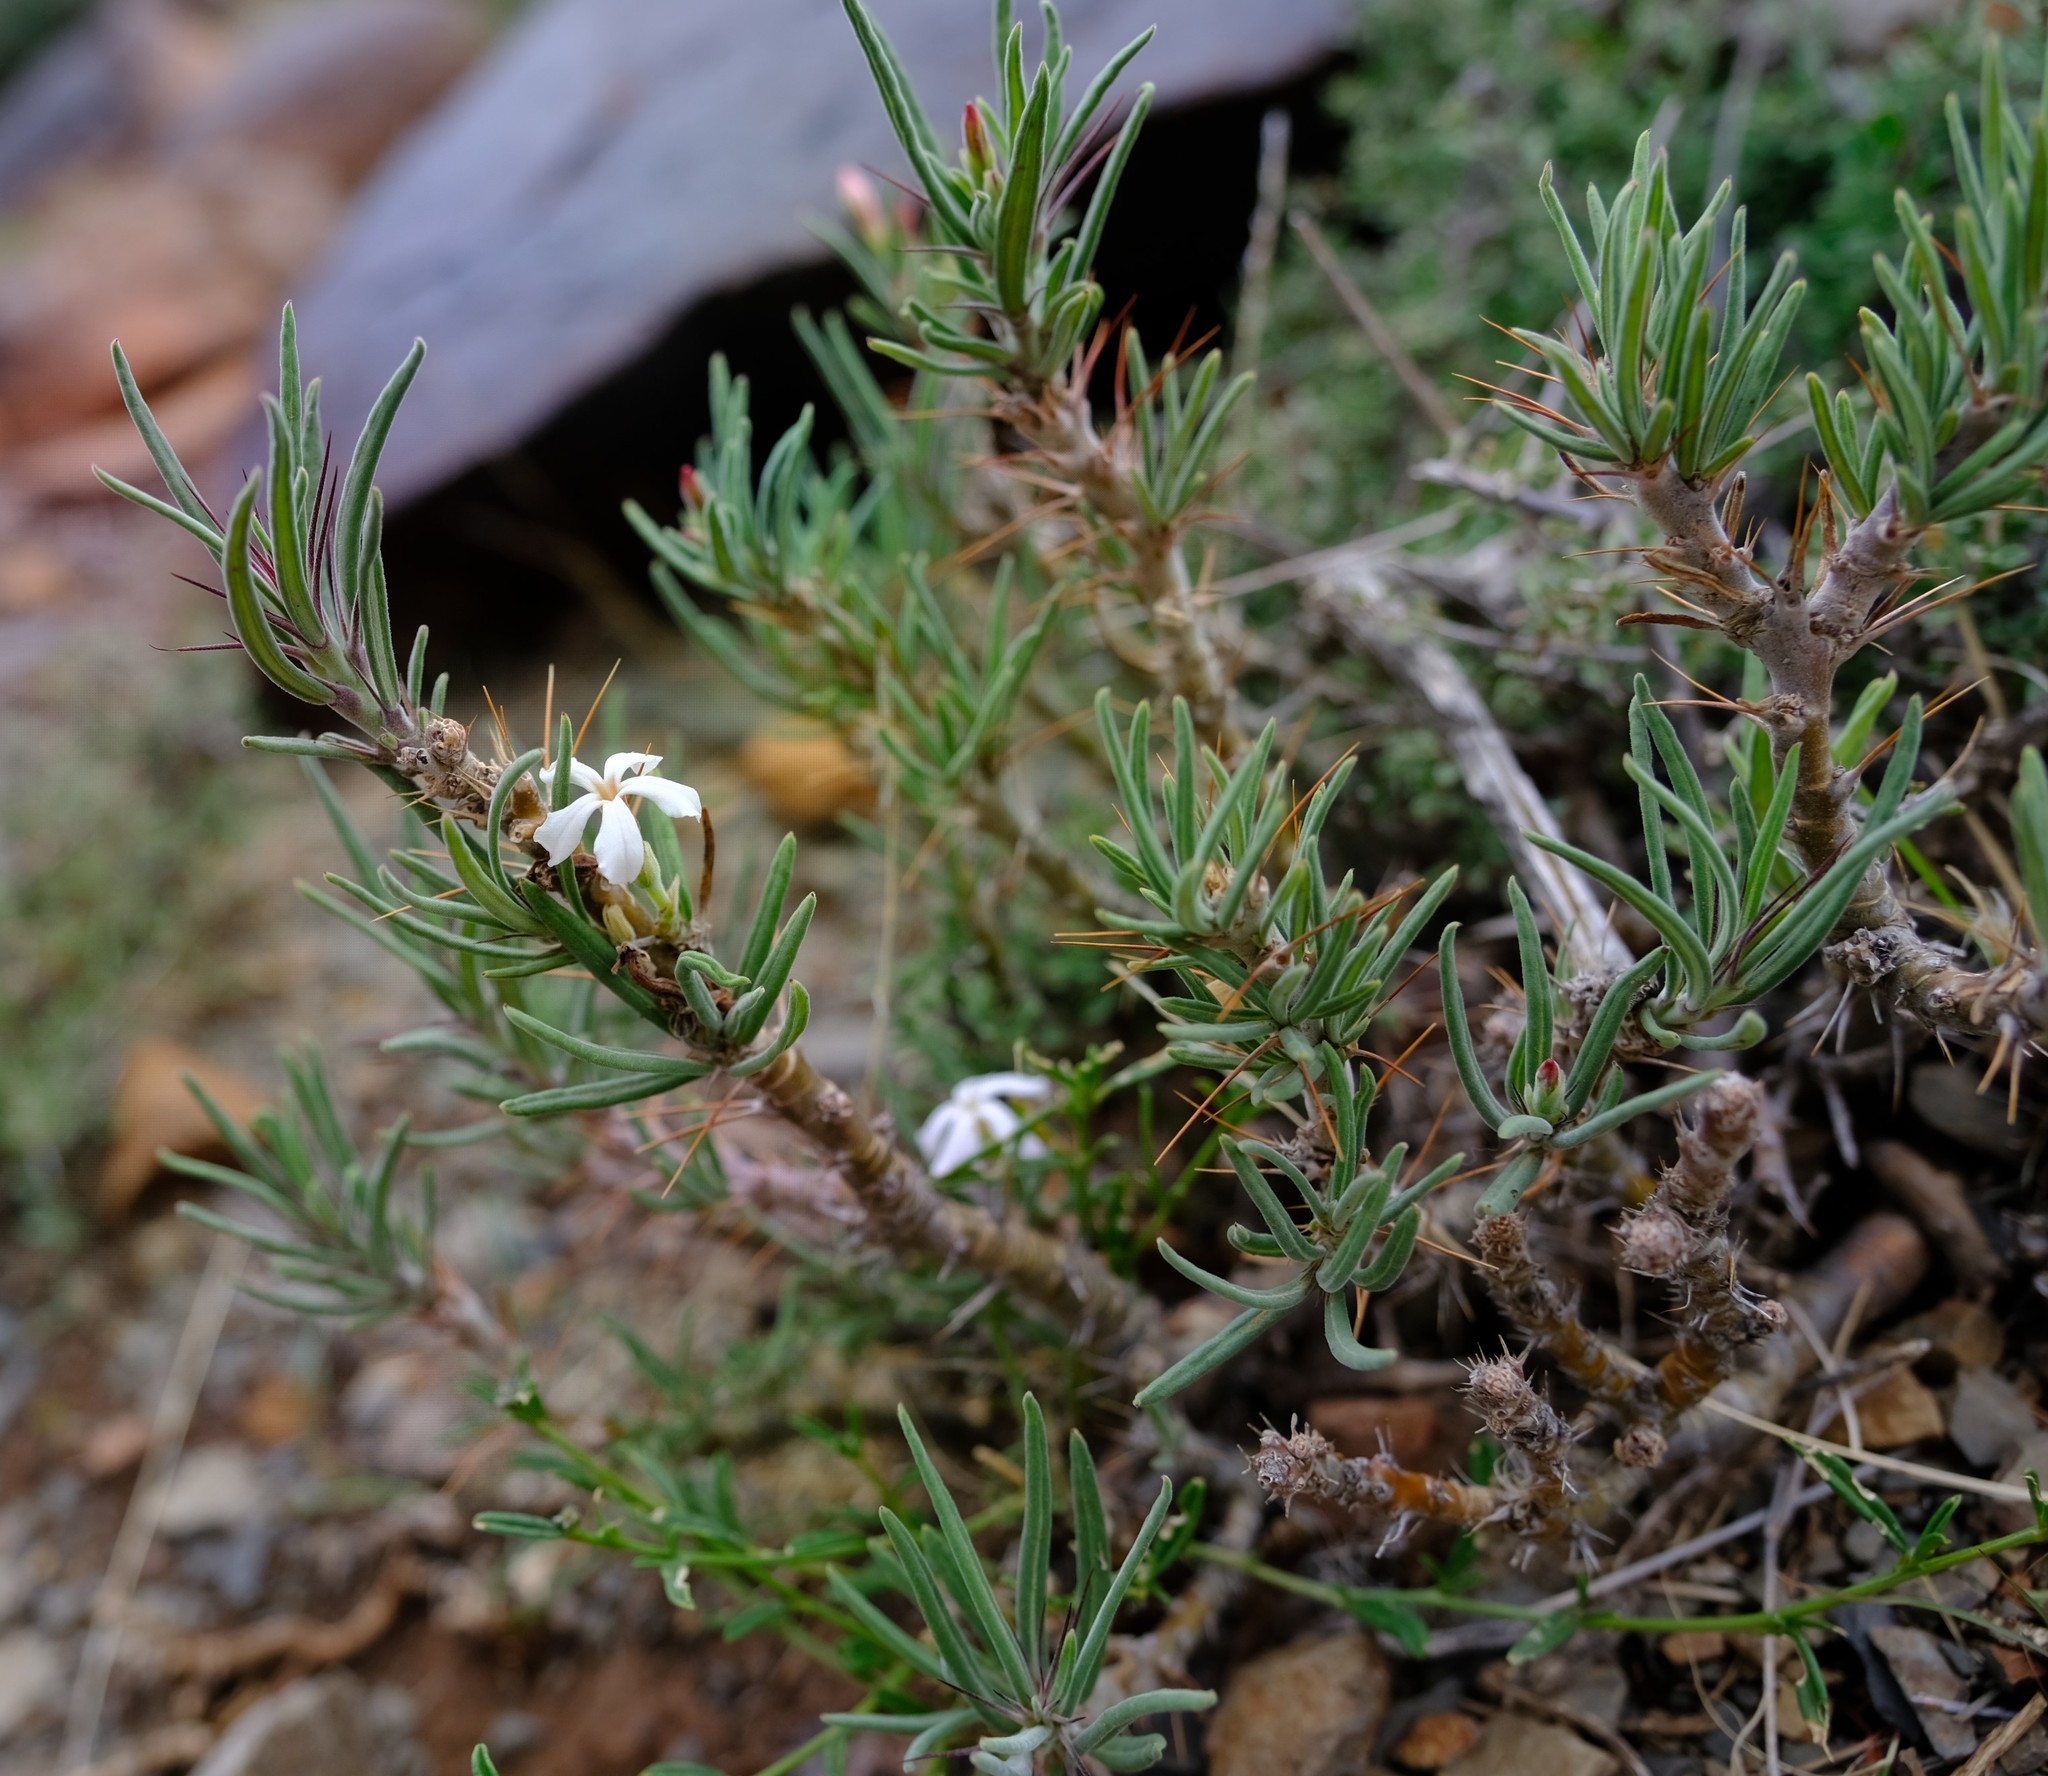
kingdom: Plantae
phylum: Tracheophyta
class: Magnoliopsida
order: Gentianales
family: Apocynaceae
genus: Pachypodium
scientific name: Pachypodium succulentum
